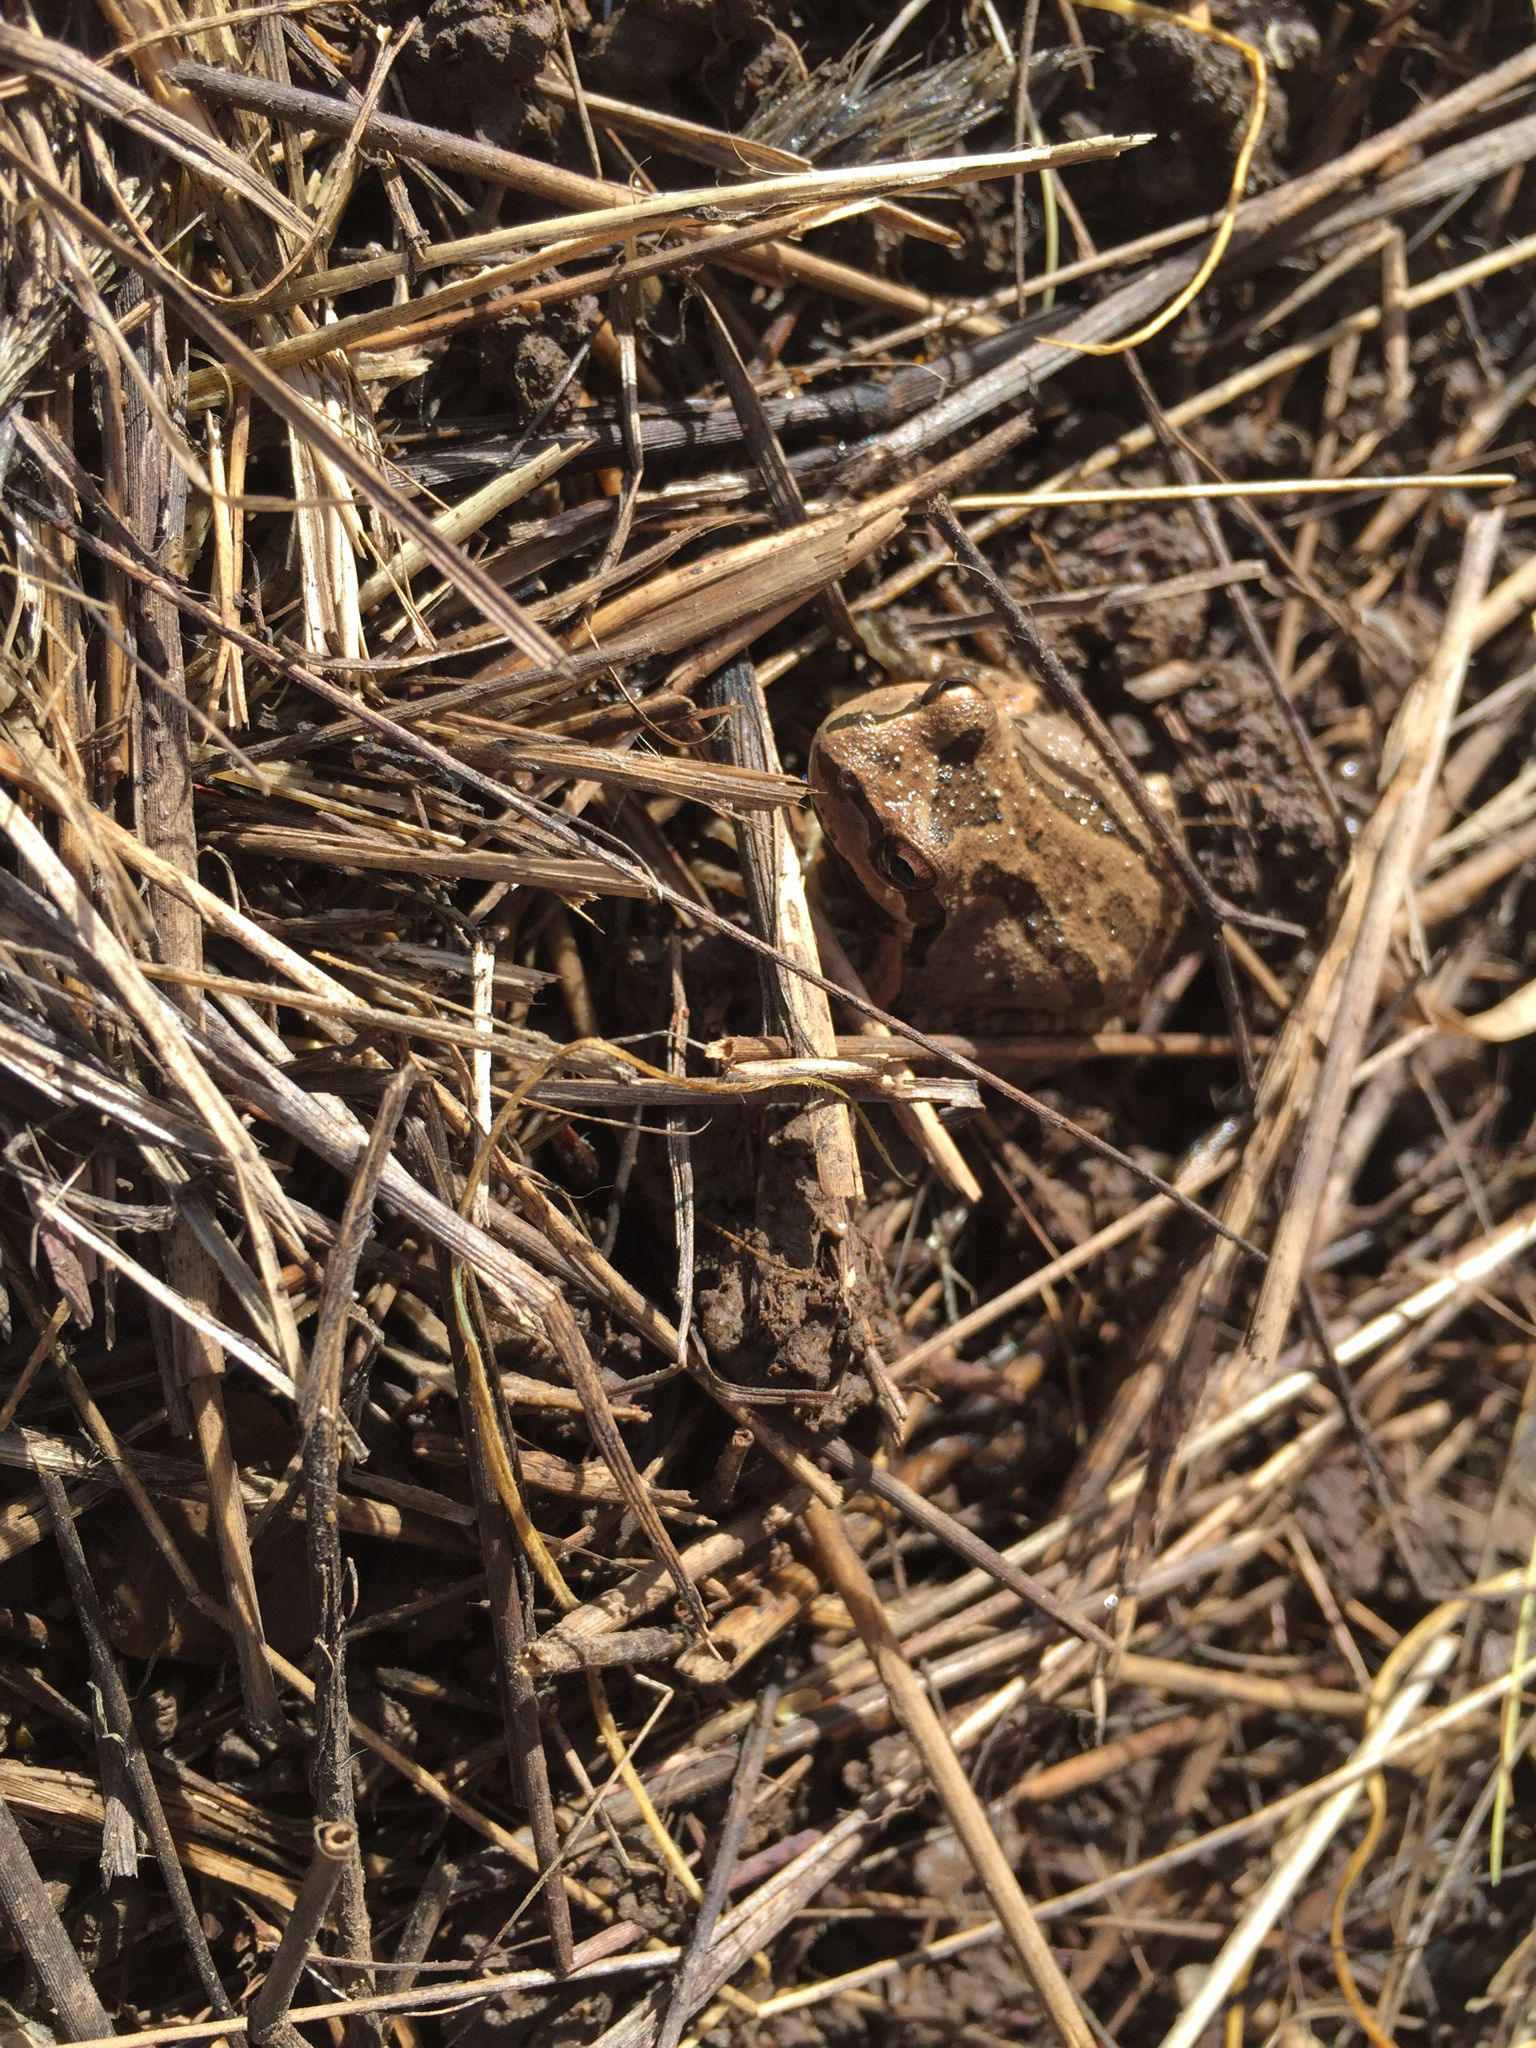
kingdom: Animalia
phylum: Chordata
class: Amphibia
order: Anura
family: Hylidae
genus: Pseudacris
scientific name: Pseudacris regilla
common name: Pacific chorus frog
